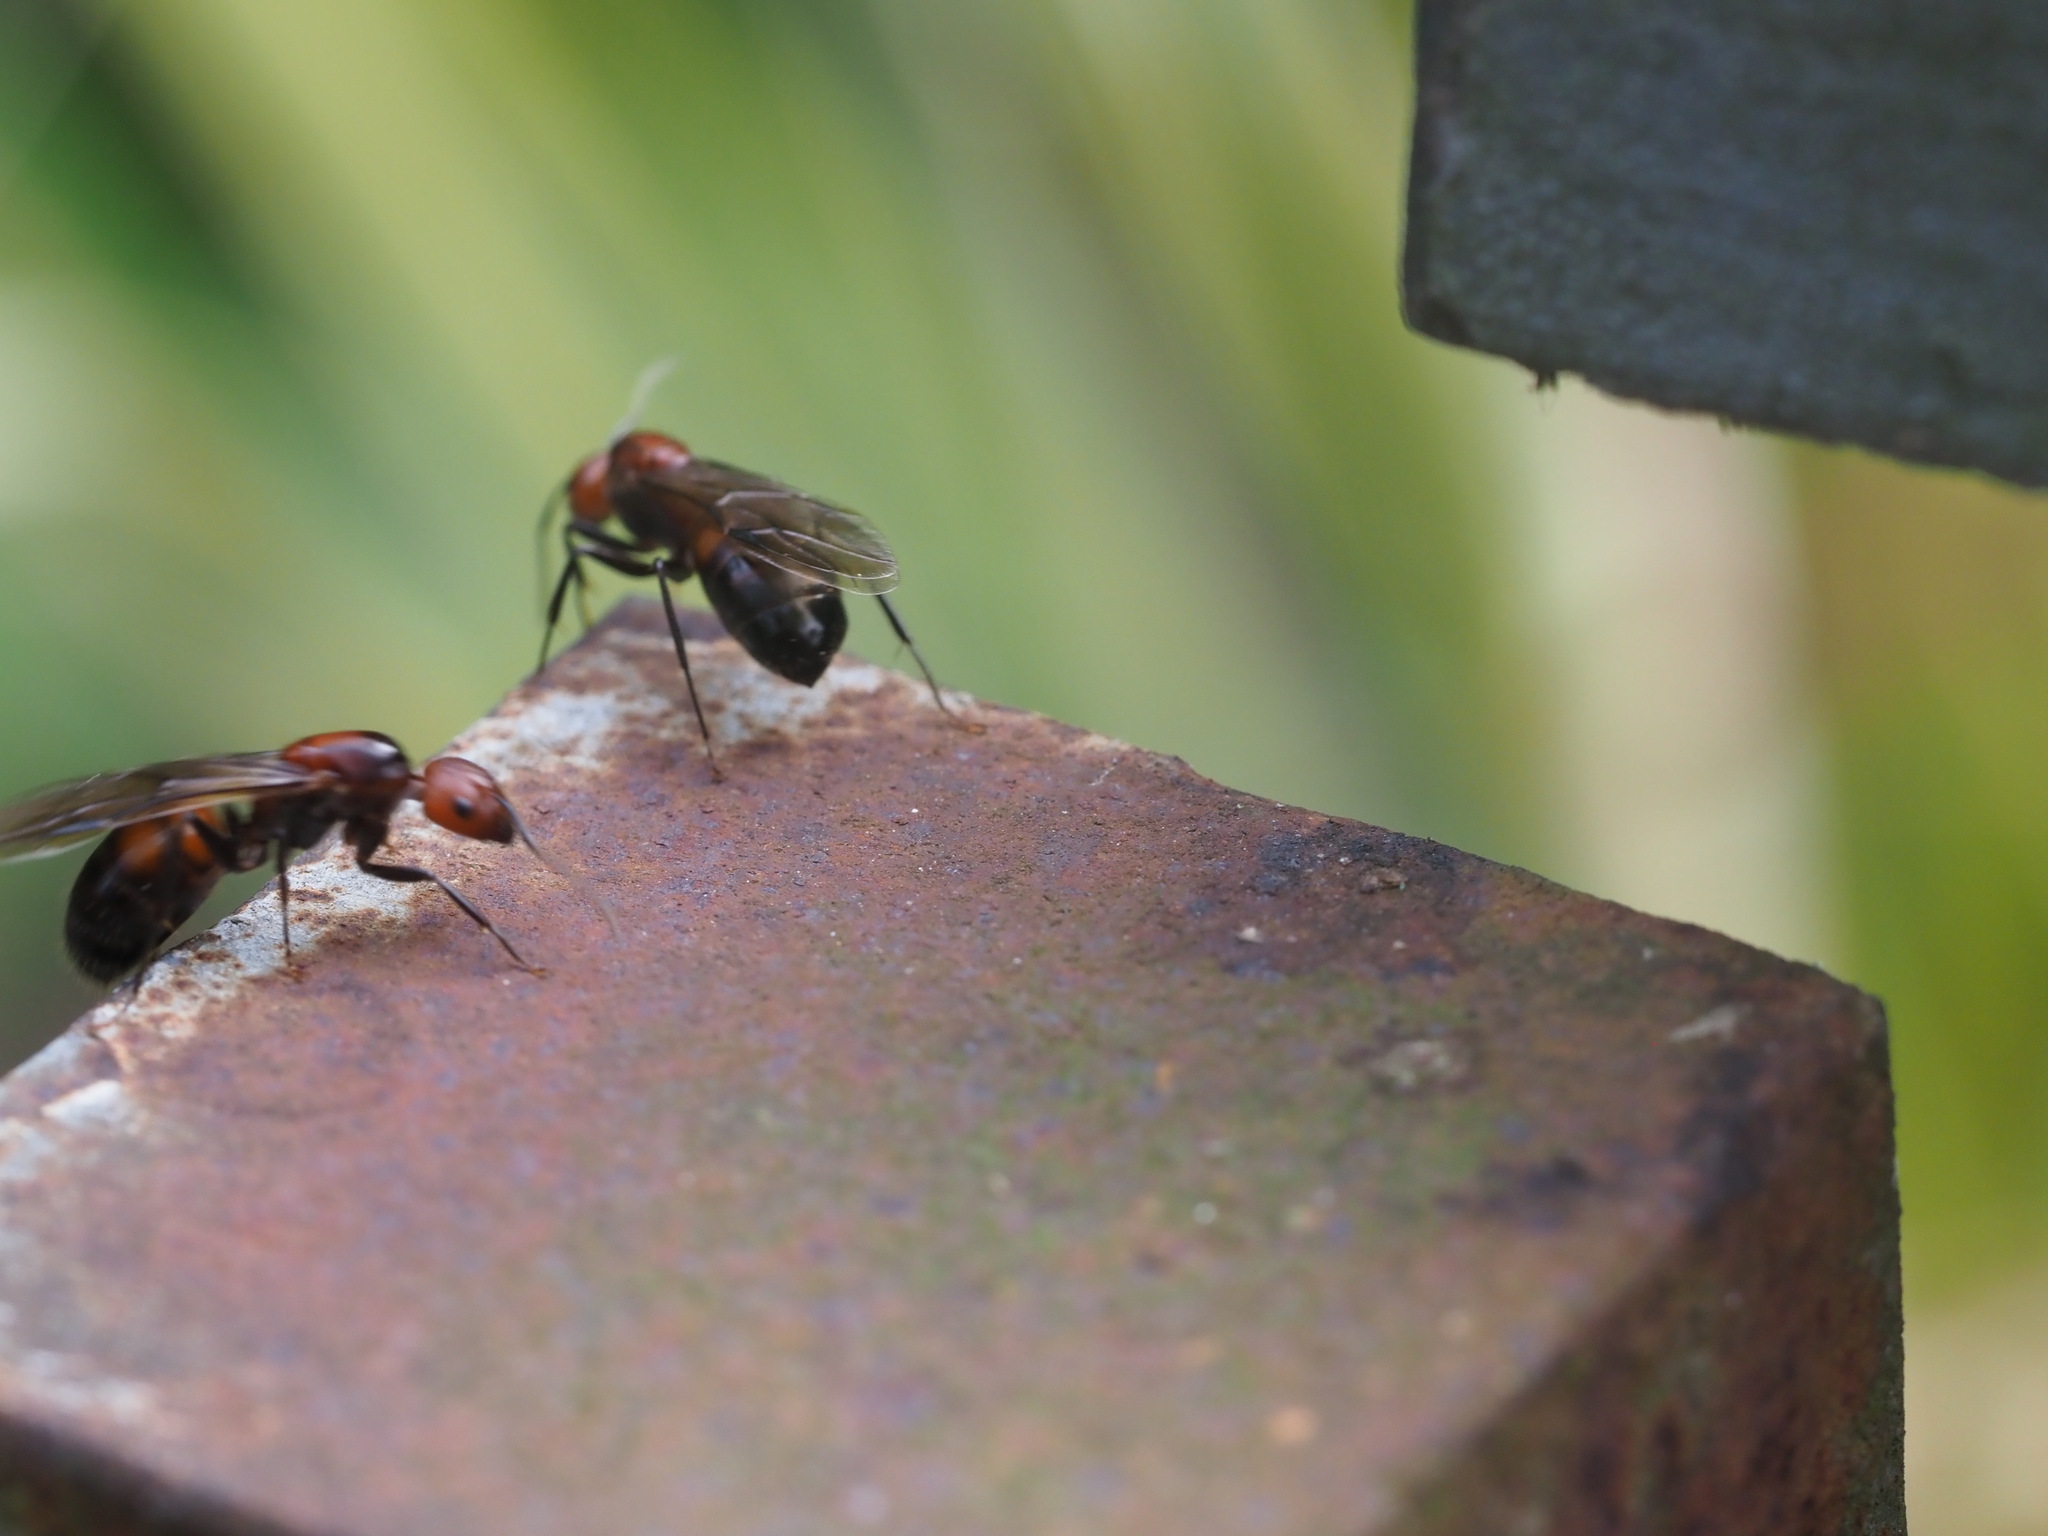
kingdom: Animalia
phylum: Arthropoda
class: Insecta
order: Hymenoptera
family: Formicidae
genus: Camponotus
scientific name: Camponotus nicobarensis
